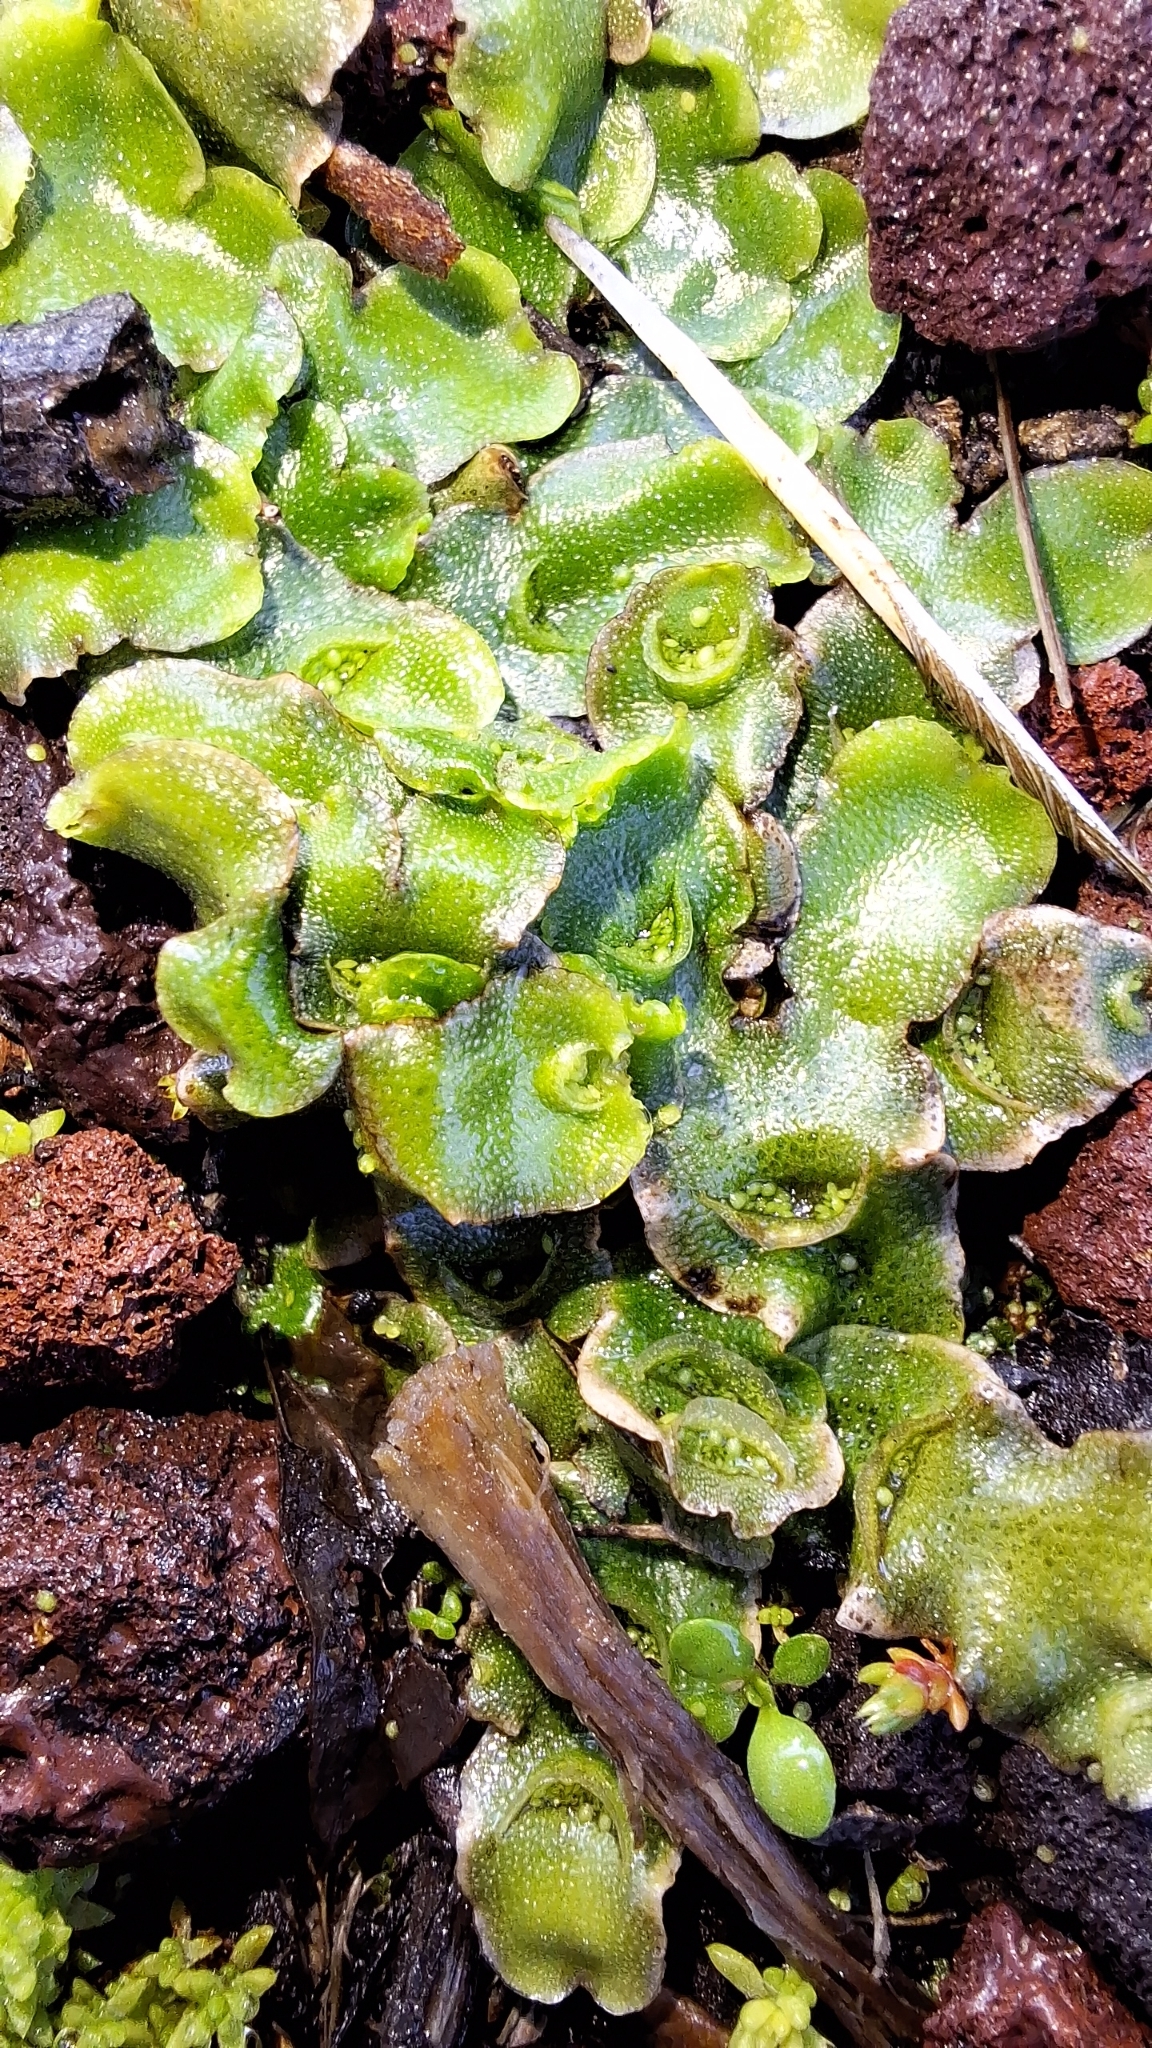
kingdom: Plantae
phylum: Marchantiophyta
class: Marchantiopsida
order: Lunulariales
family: Lunulariaceae
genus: Lunularia
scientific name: Lunularia cruciata
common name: Crescent-cup liverwort
